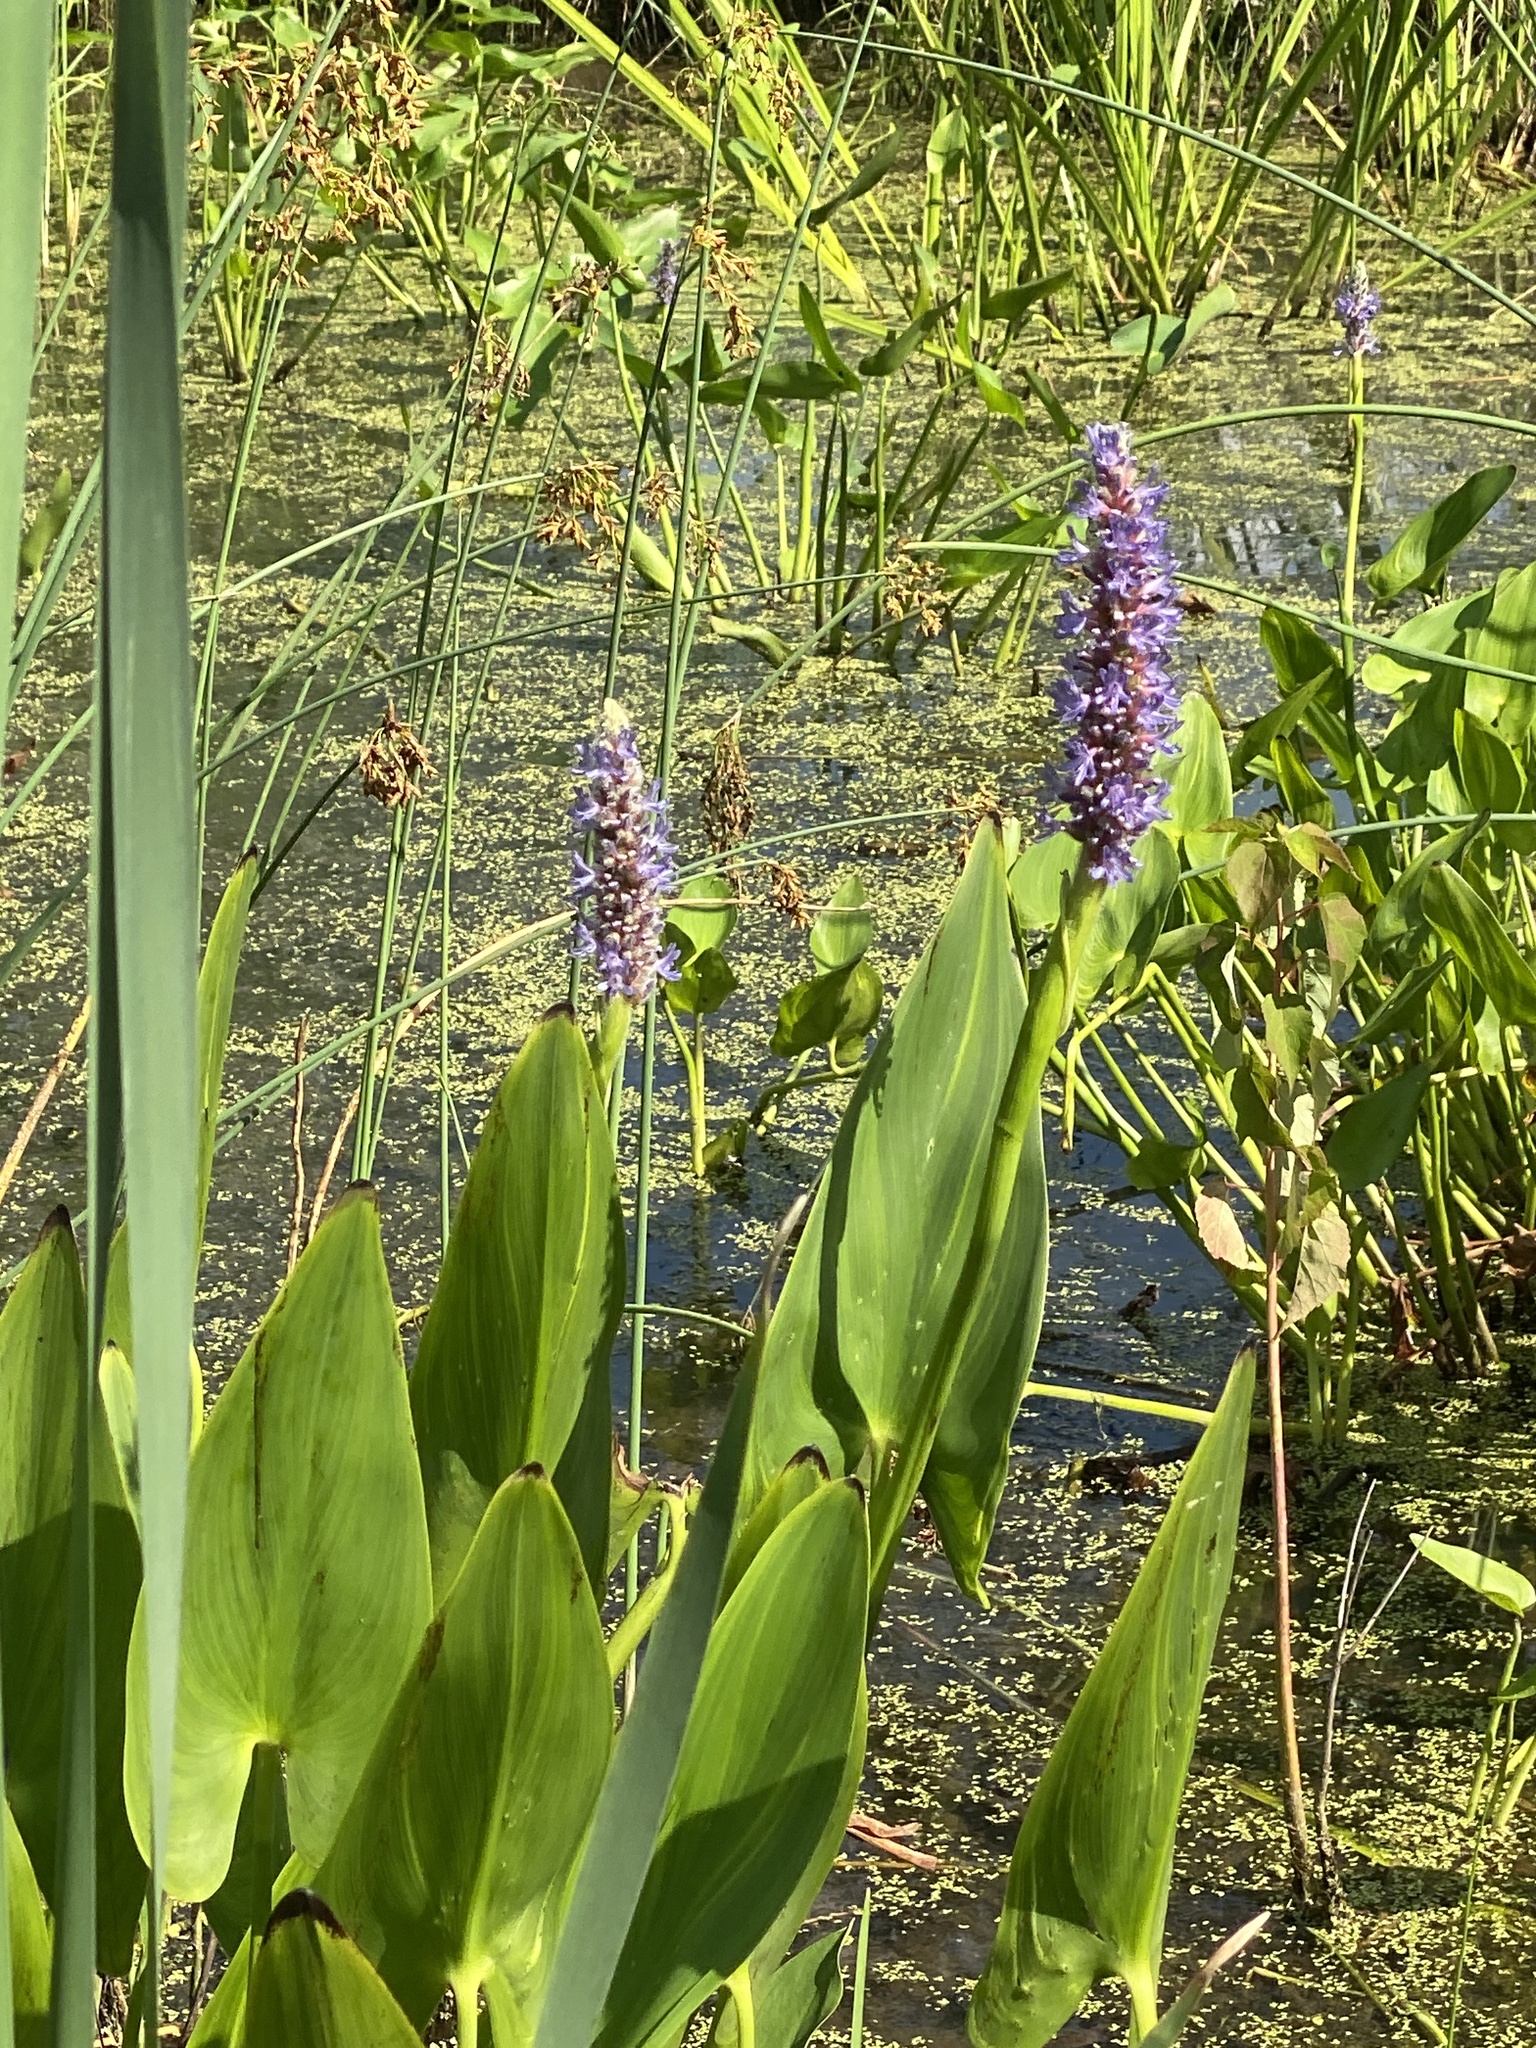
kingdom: Plantae
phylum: Tracheophyta
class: Liliopsida
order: Commelinales
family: Pontederiaceae
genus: Pontederia
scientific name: Pontederia cordata
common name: Pickerelweed
